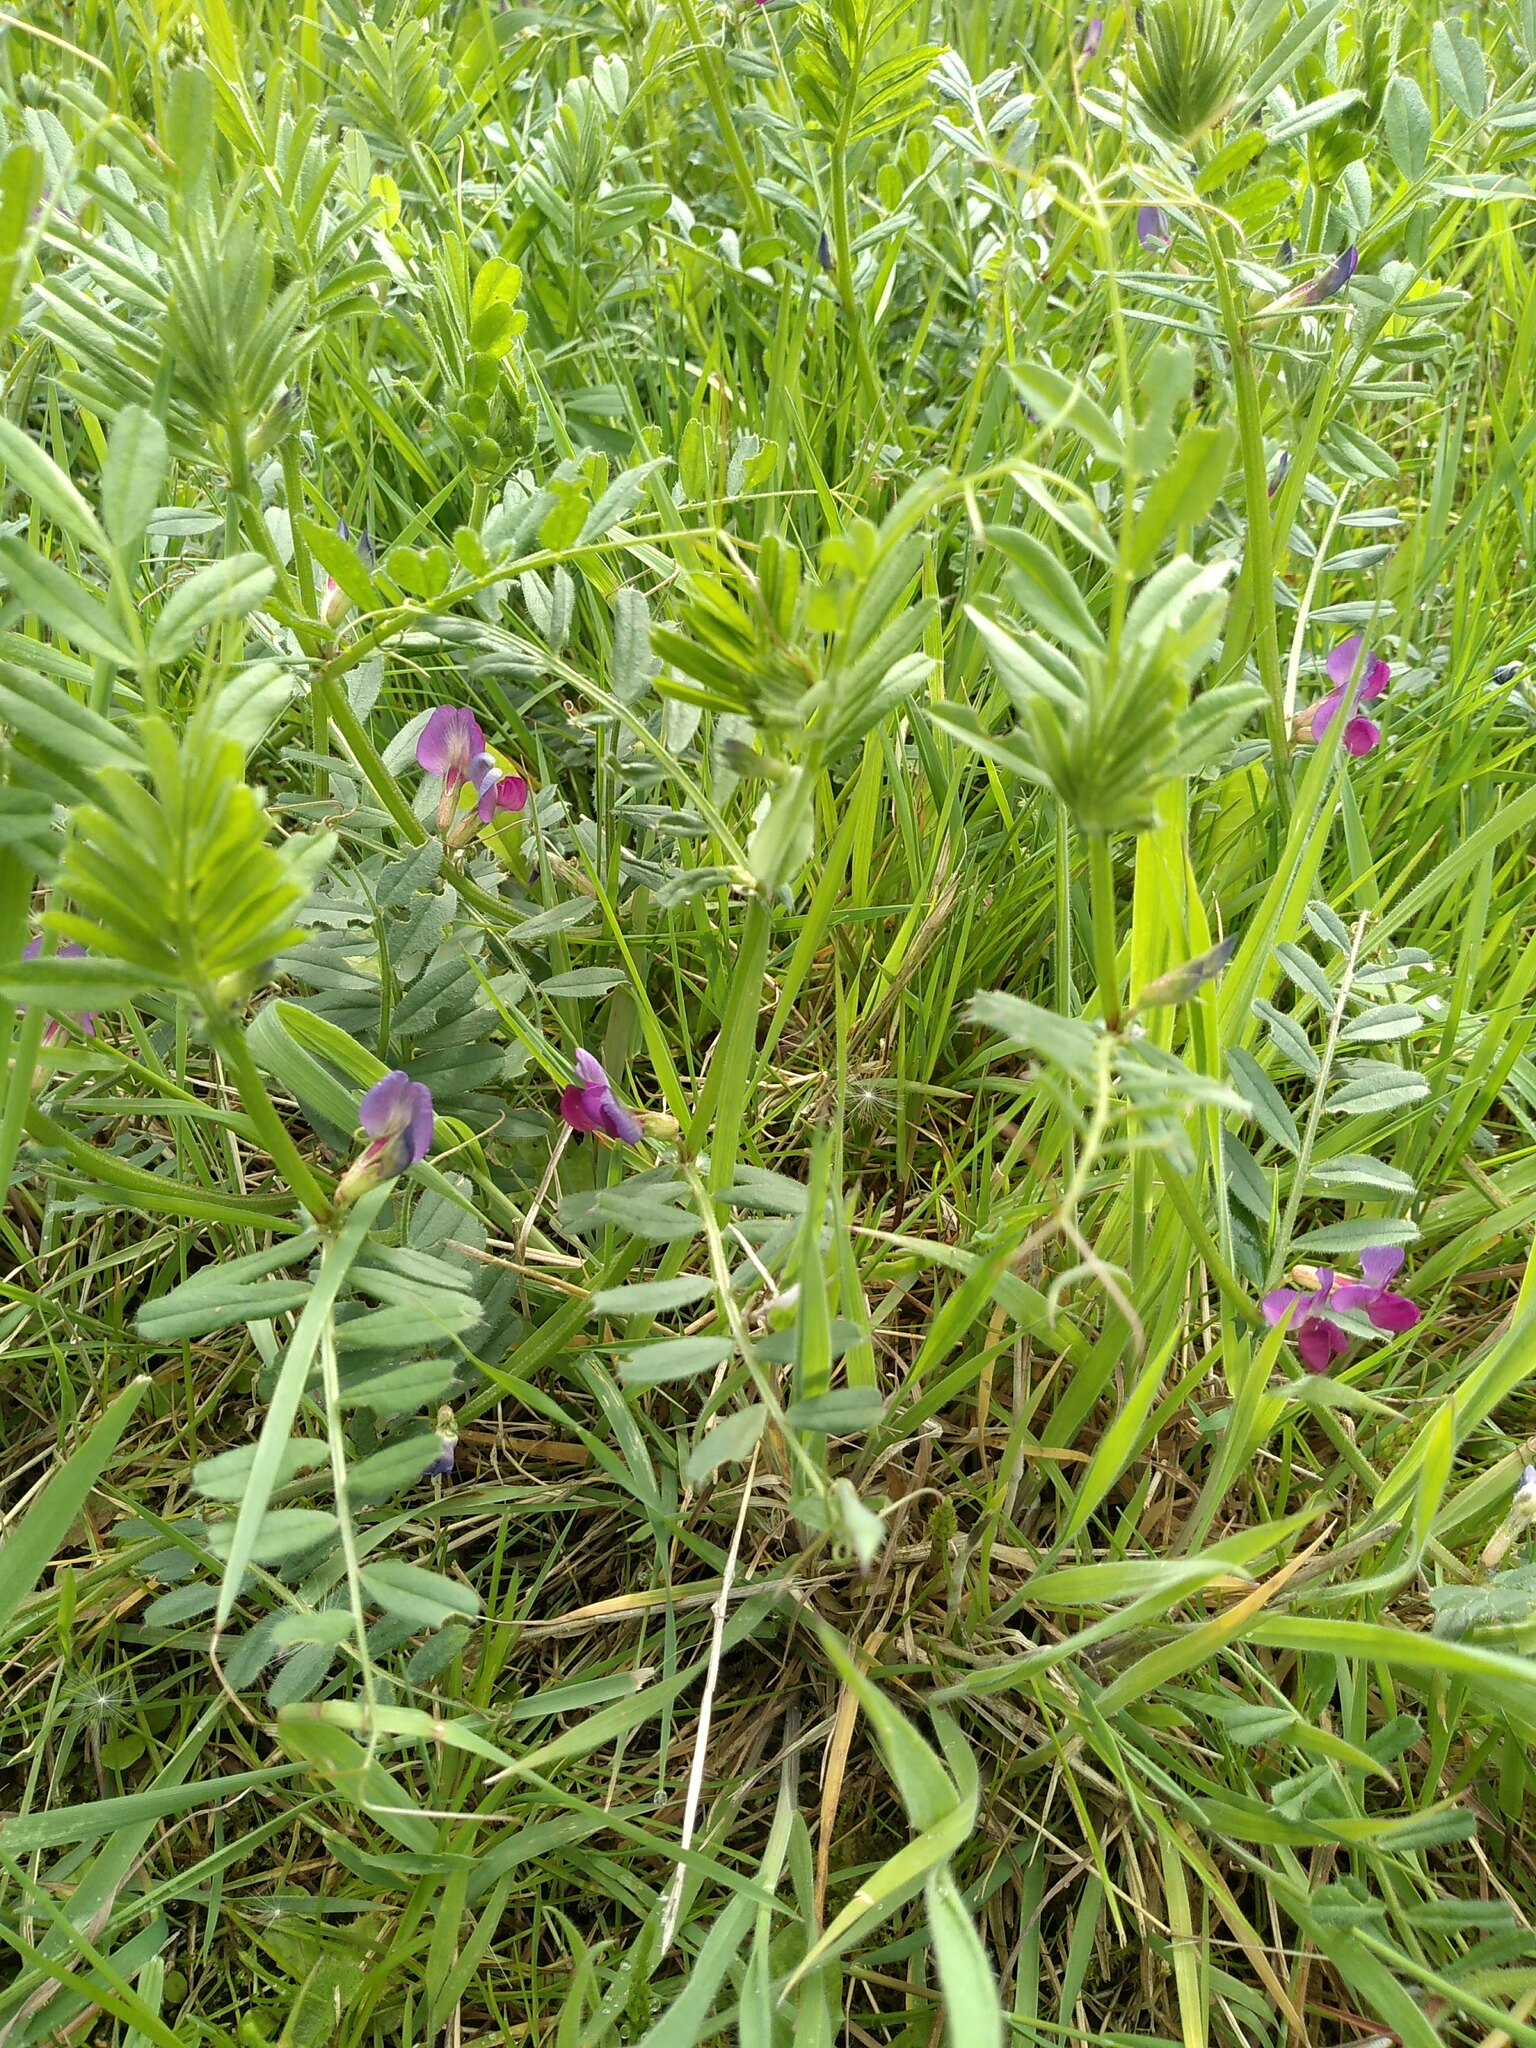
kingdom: Plantae
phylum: Tracheophyta
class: Magnoliopsida
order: Fabales
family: Fabaceae
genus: Vicia
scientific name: Vicia sativa
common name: Garden vetch
